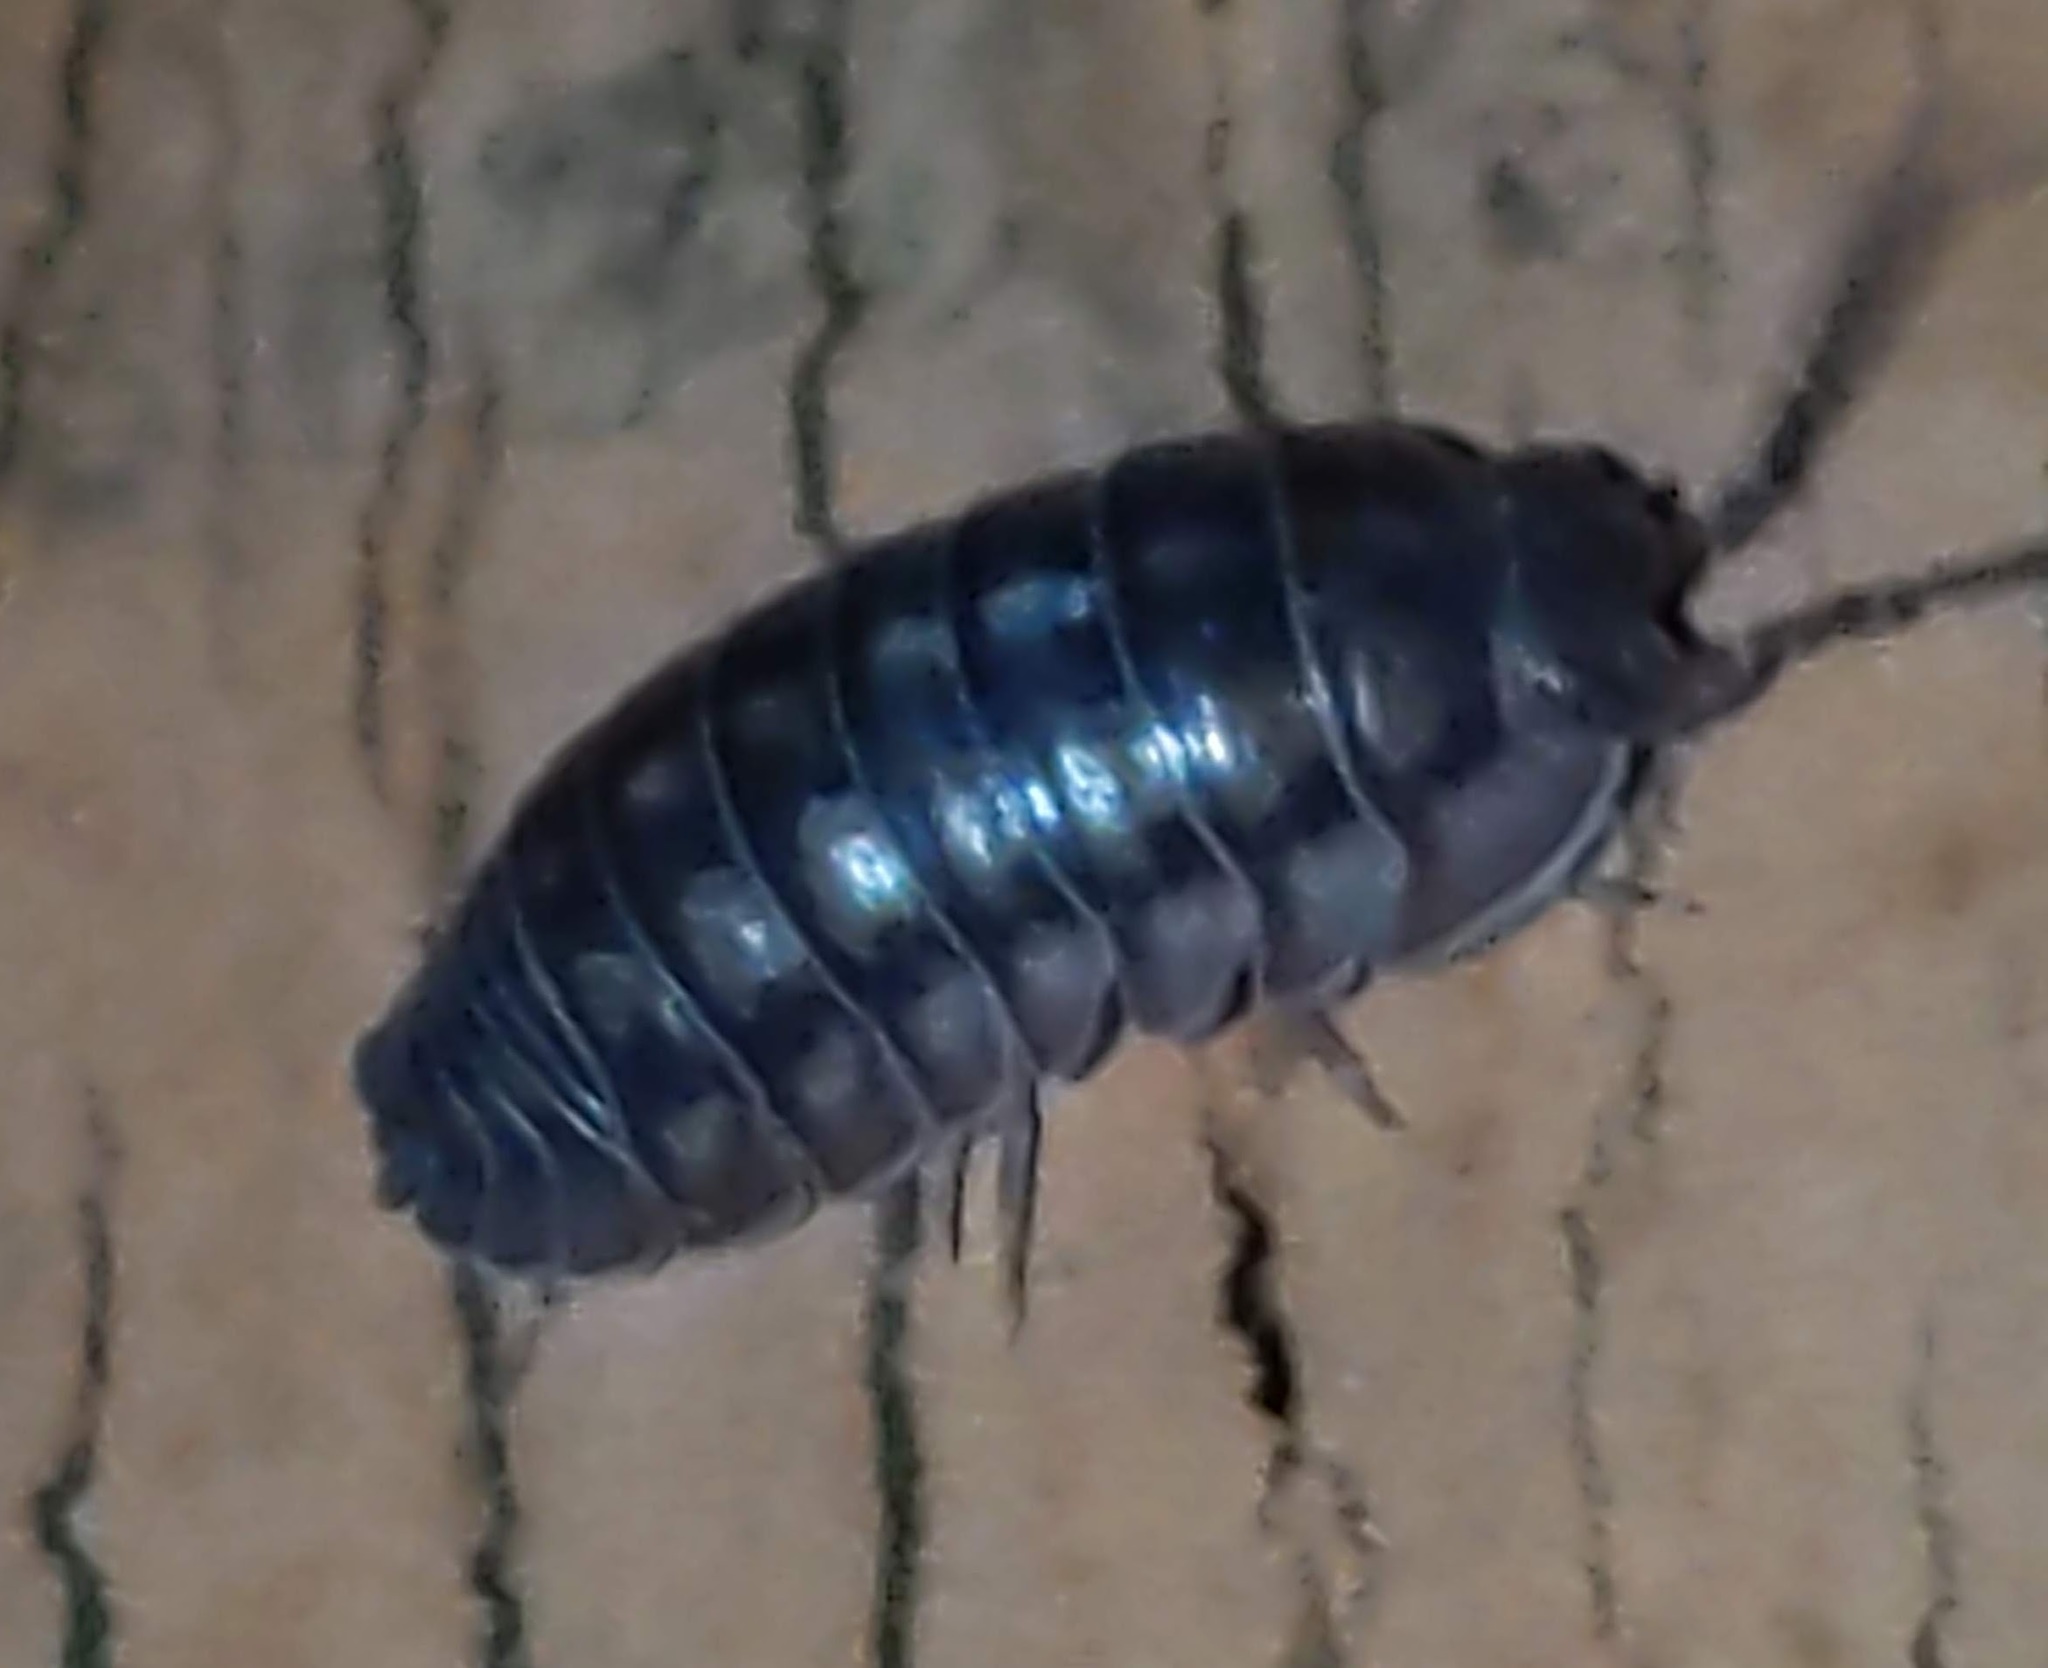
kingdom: Animalia
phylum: Arthropoda
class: Malacostraca
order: Isopoda
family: Armadillidiidae
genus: Armadillidium
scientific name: Armadillidium nasatum
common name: Isopod
